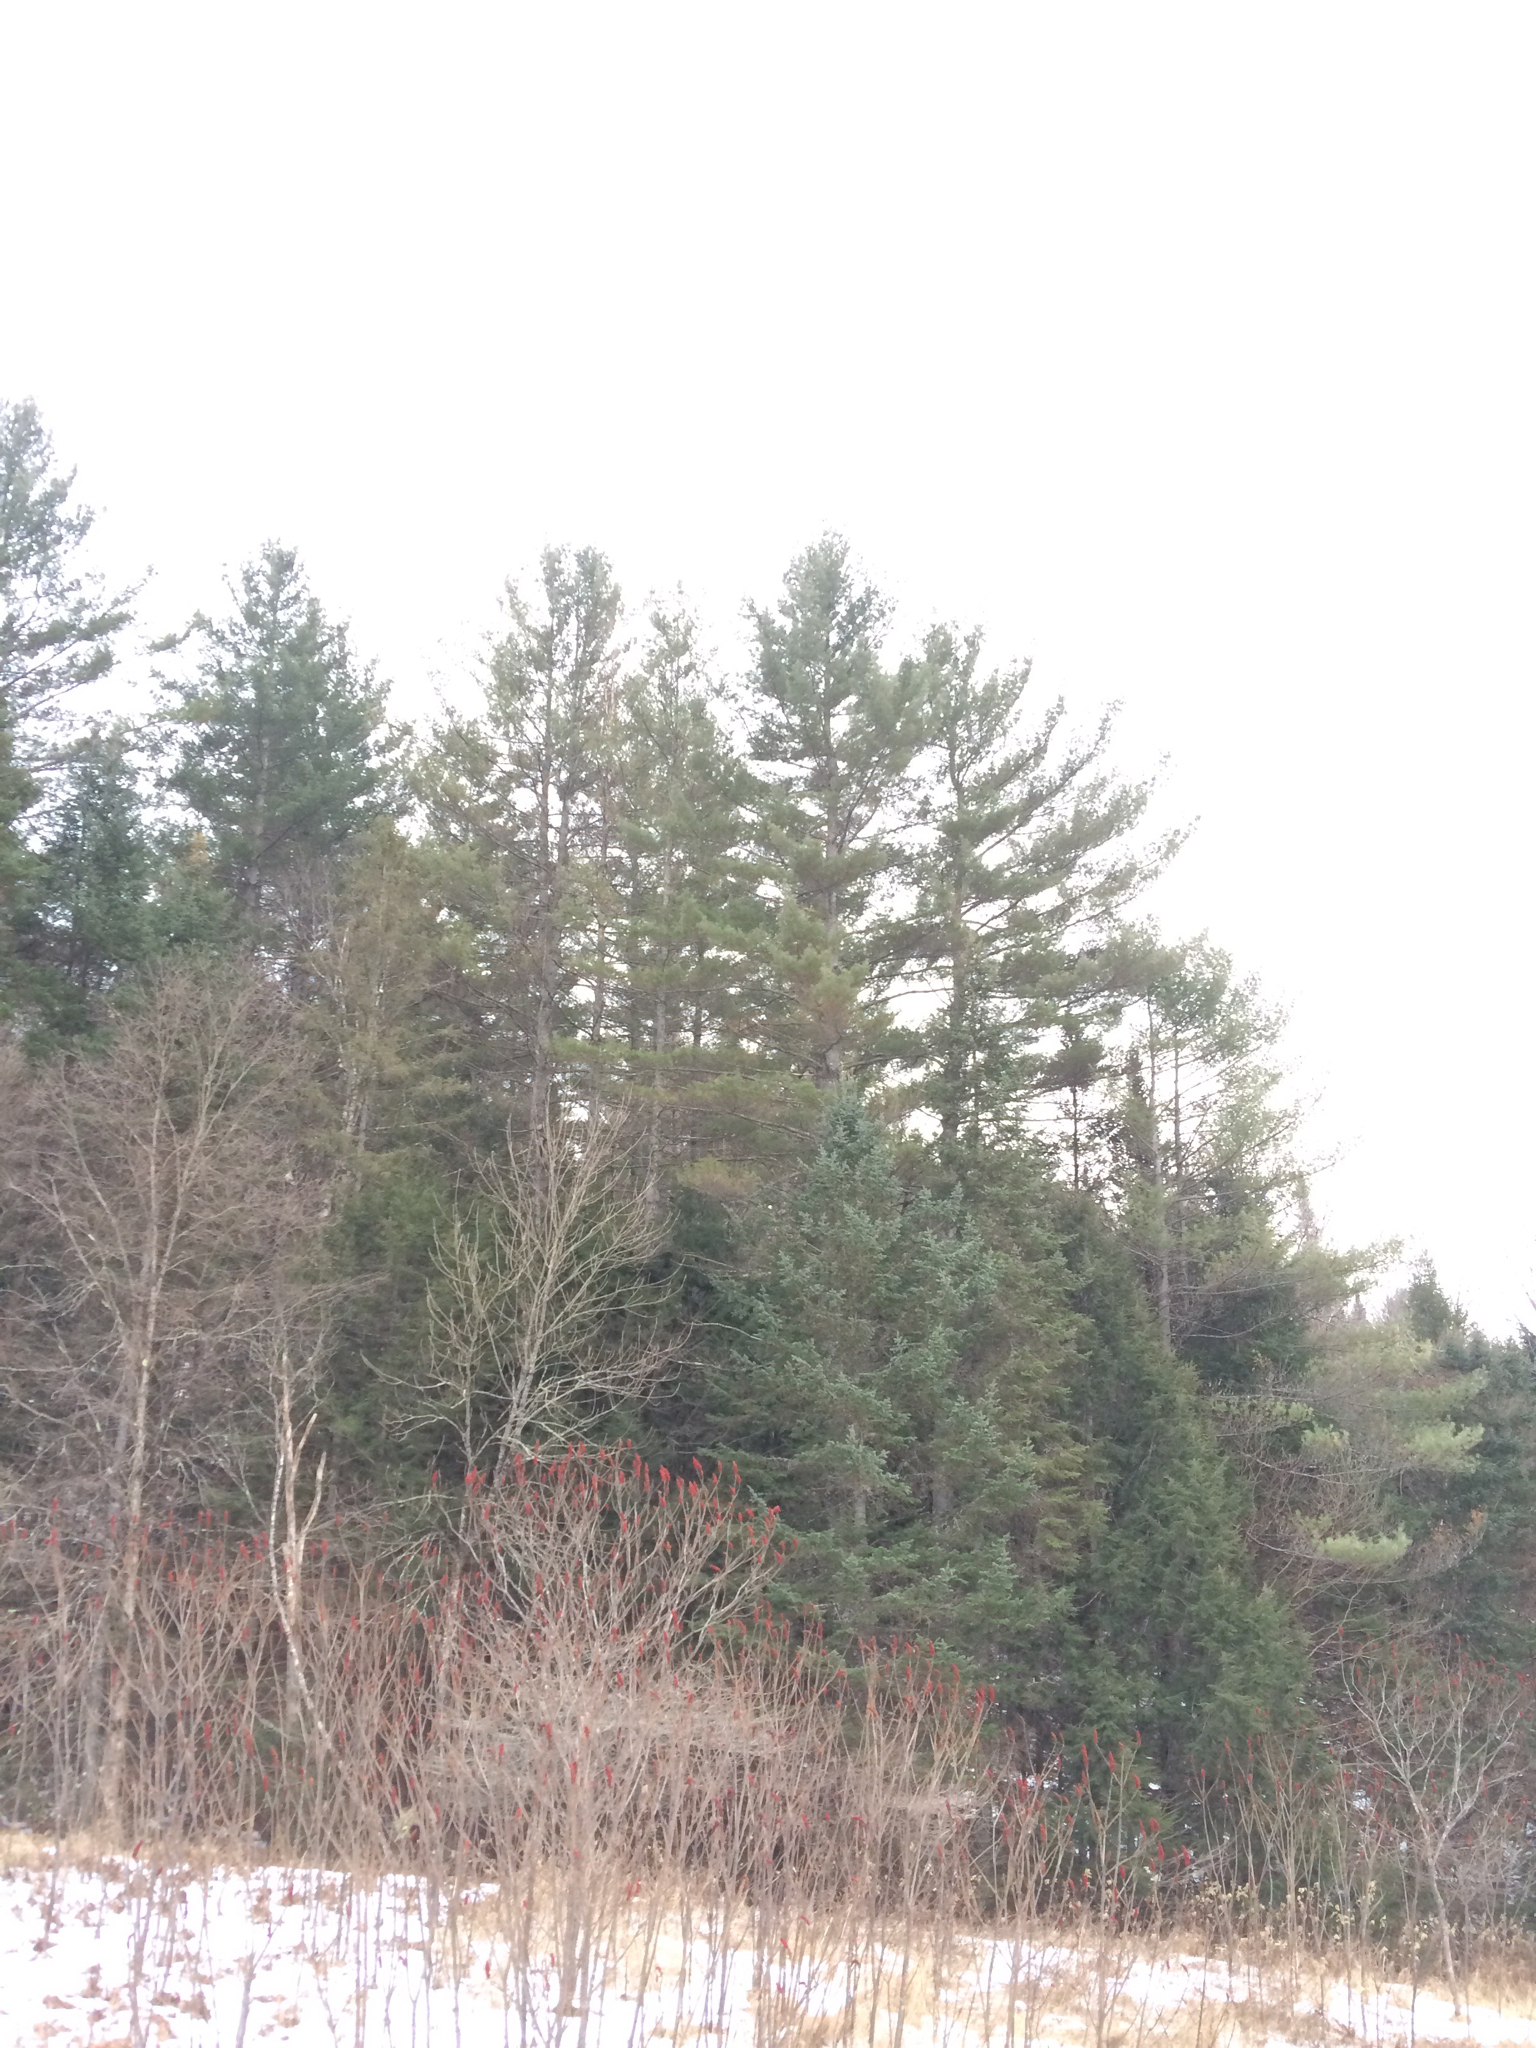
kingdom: Plantae
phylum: Tracheophyta
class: Pinopsida
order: Pinales
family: Pinaceae
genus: Pinus
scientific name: Pinus strobus
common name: Weymouth pine
